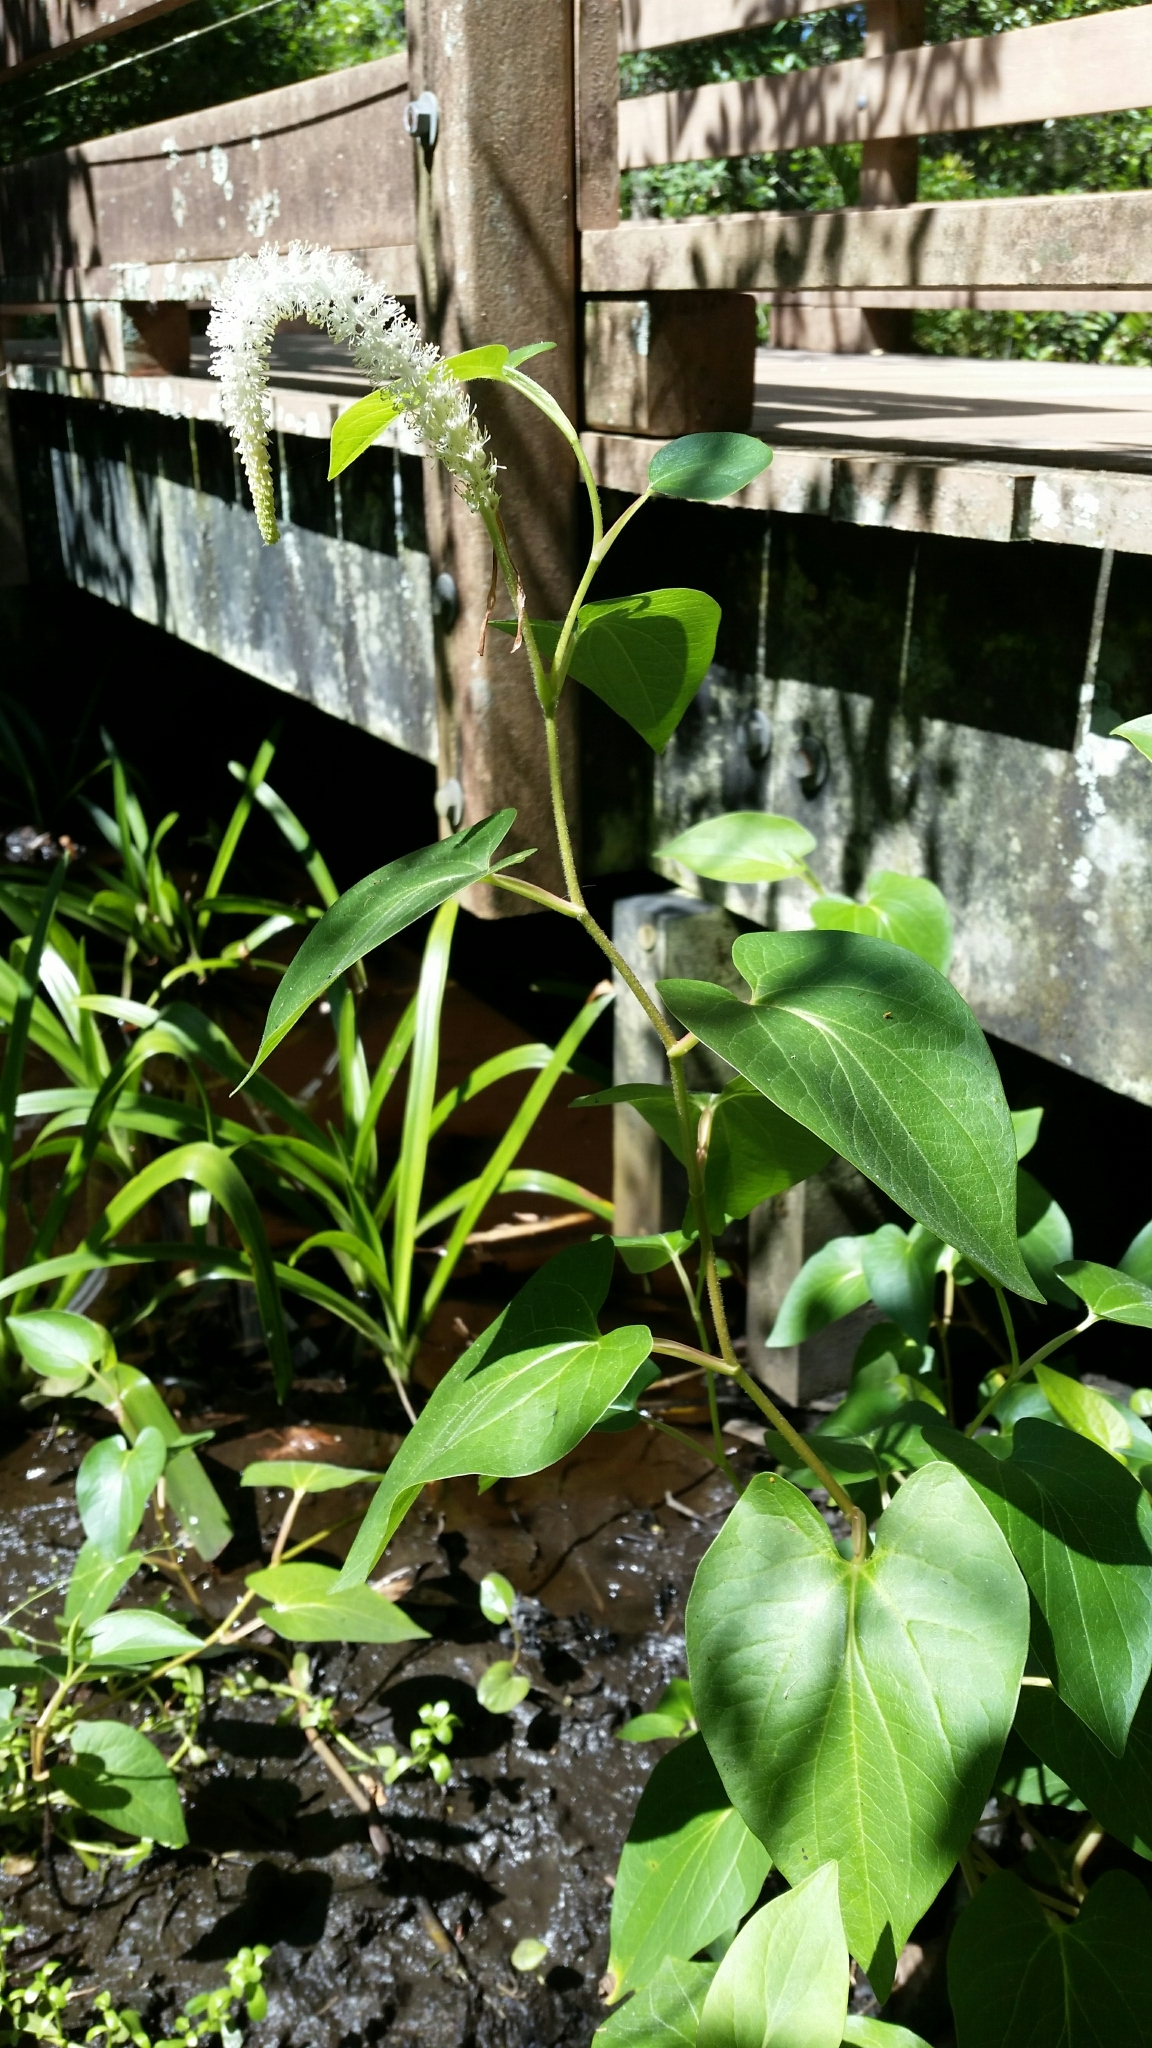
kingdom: Plantae
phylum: Tracheophyta
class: Magnoliopsida
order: Piperales
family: Saururaceae
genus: Saururus
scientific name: Saururus cernuus
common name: Lizard's-tail
